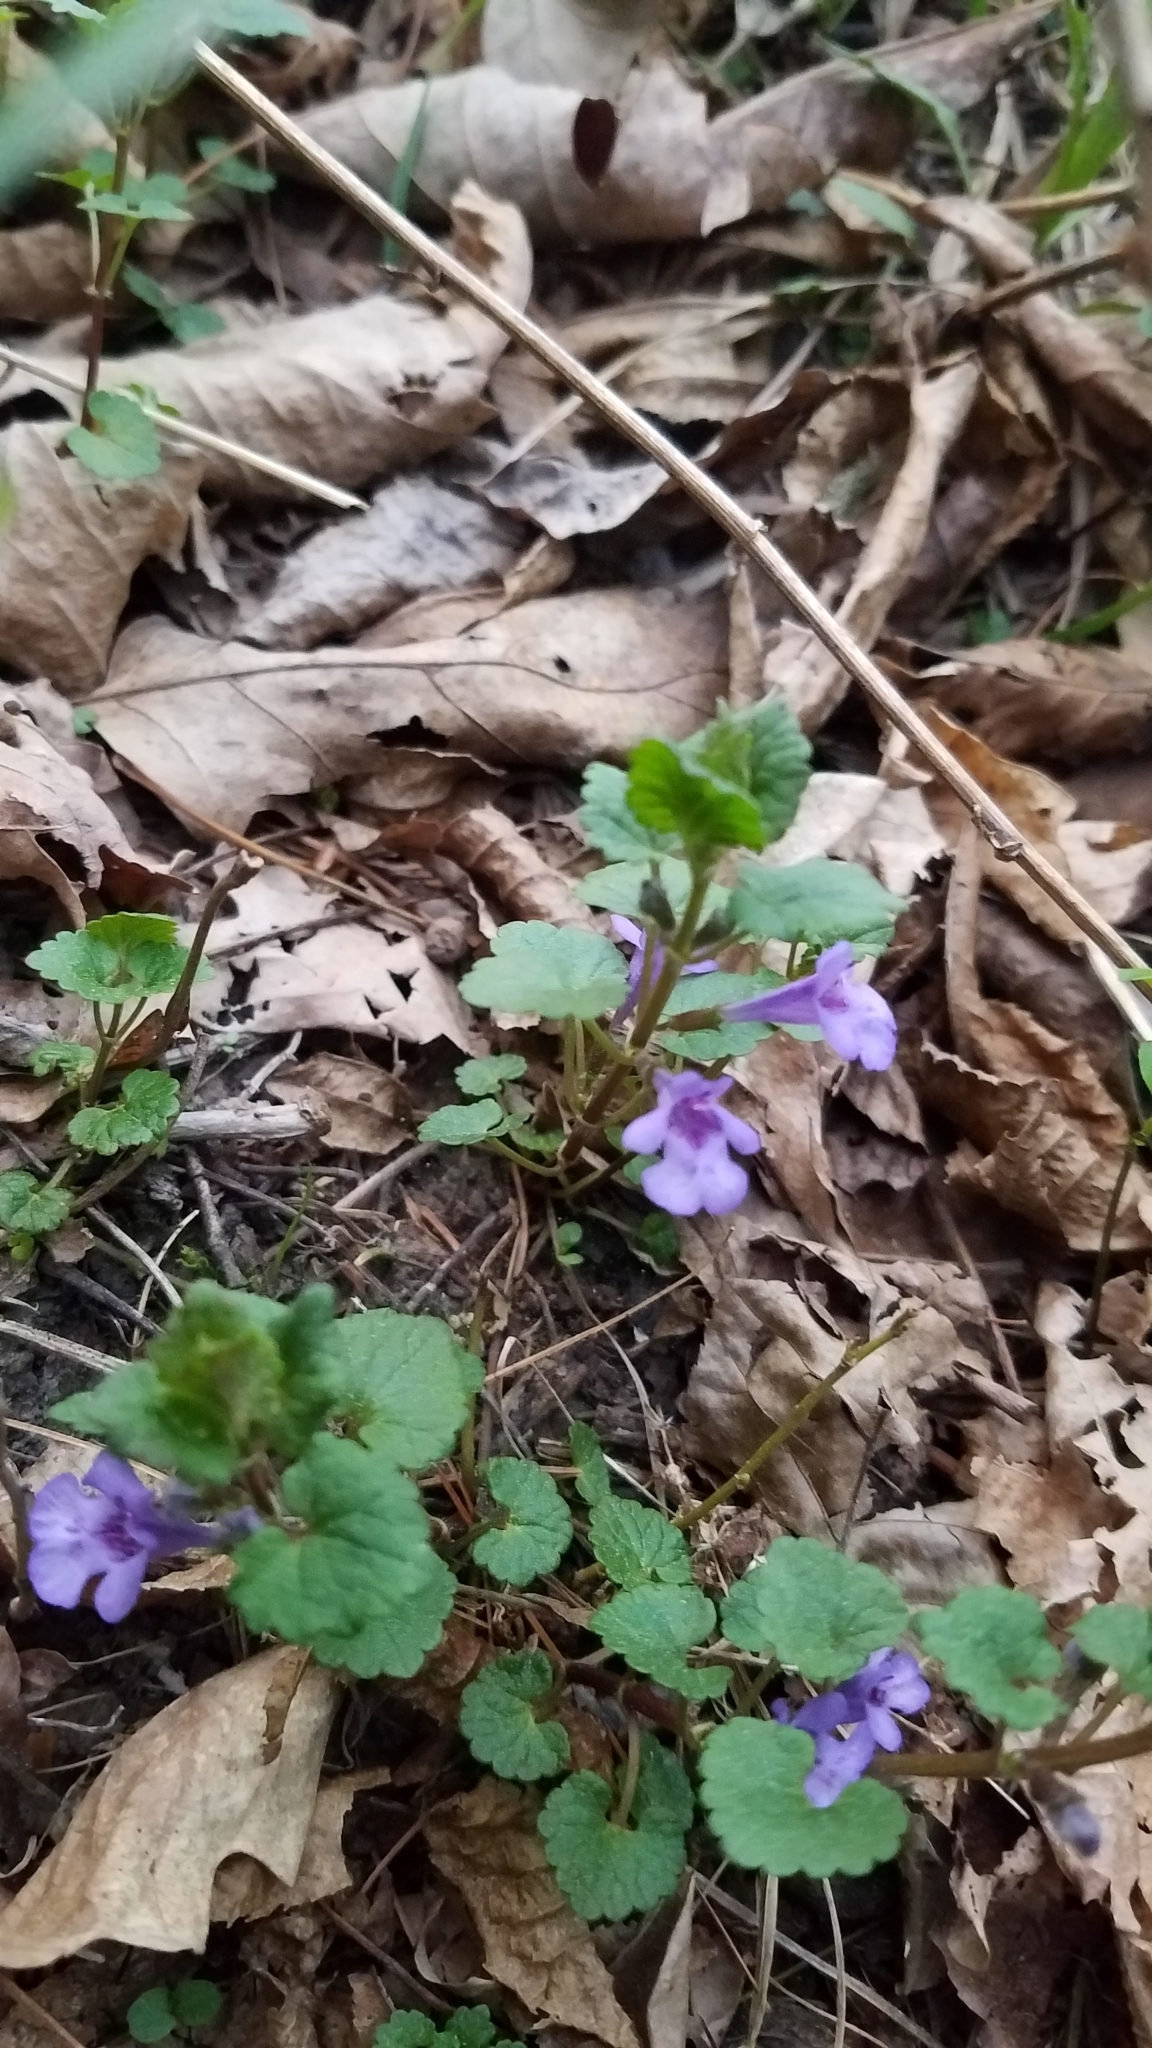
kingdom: Plantae
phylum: Tracheophyta
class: Magnoliopsida
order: Lamiales
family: Lamiaceae
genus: Glechoma
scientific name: Glechoma hederacea
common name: Ground ivy
